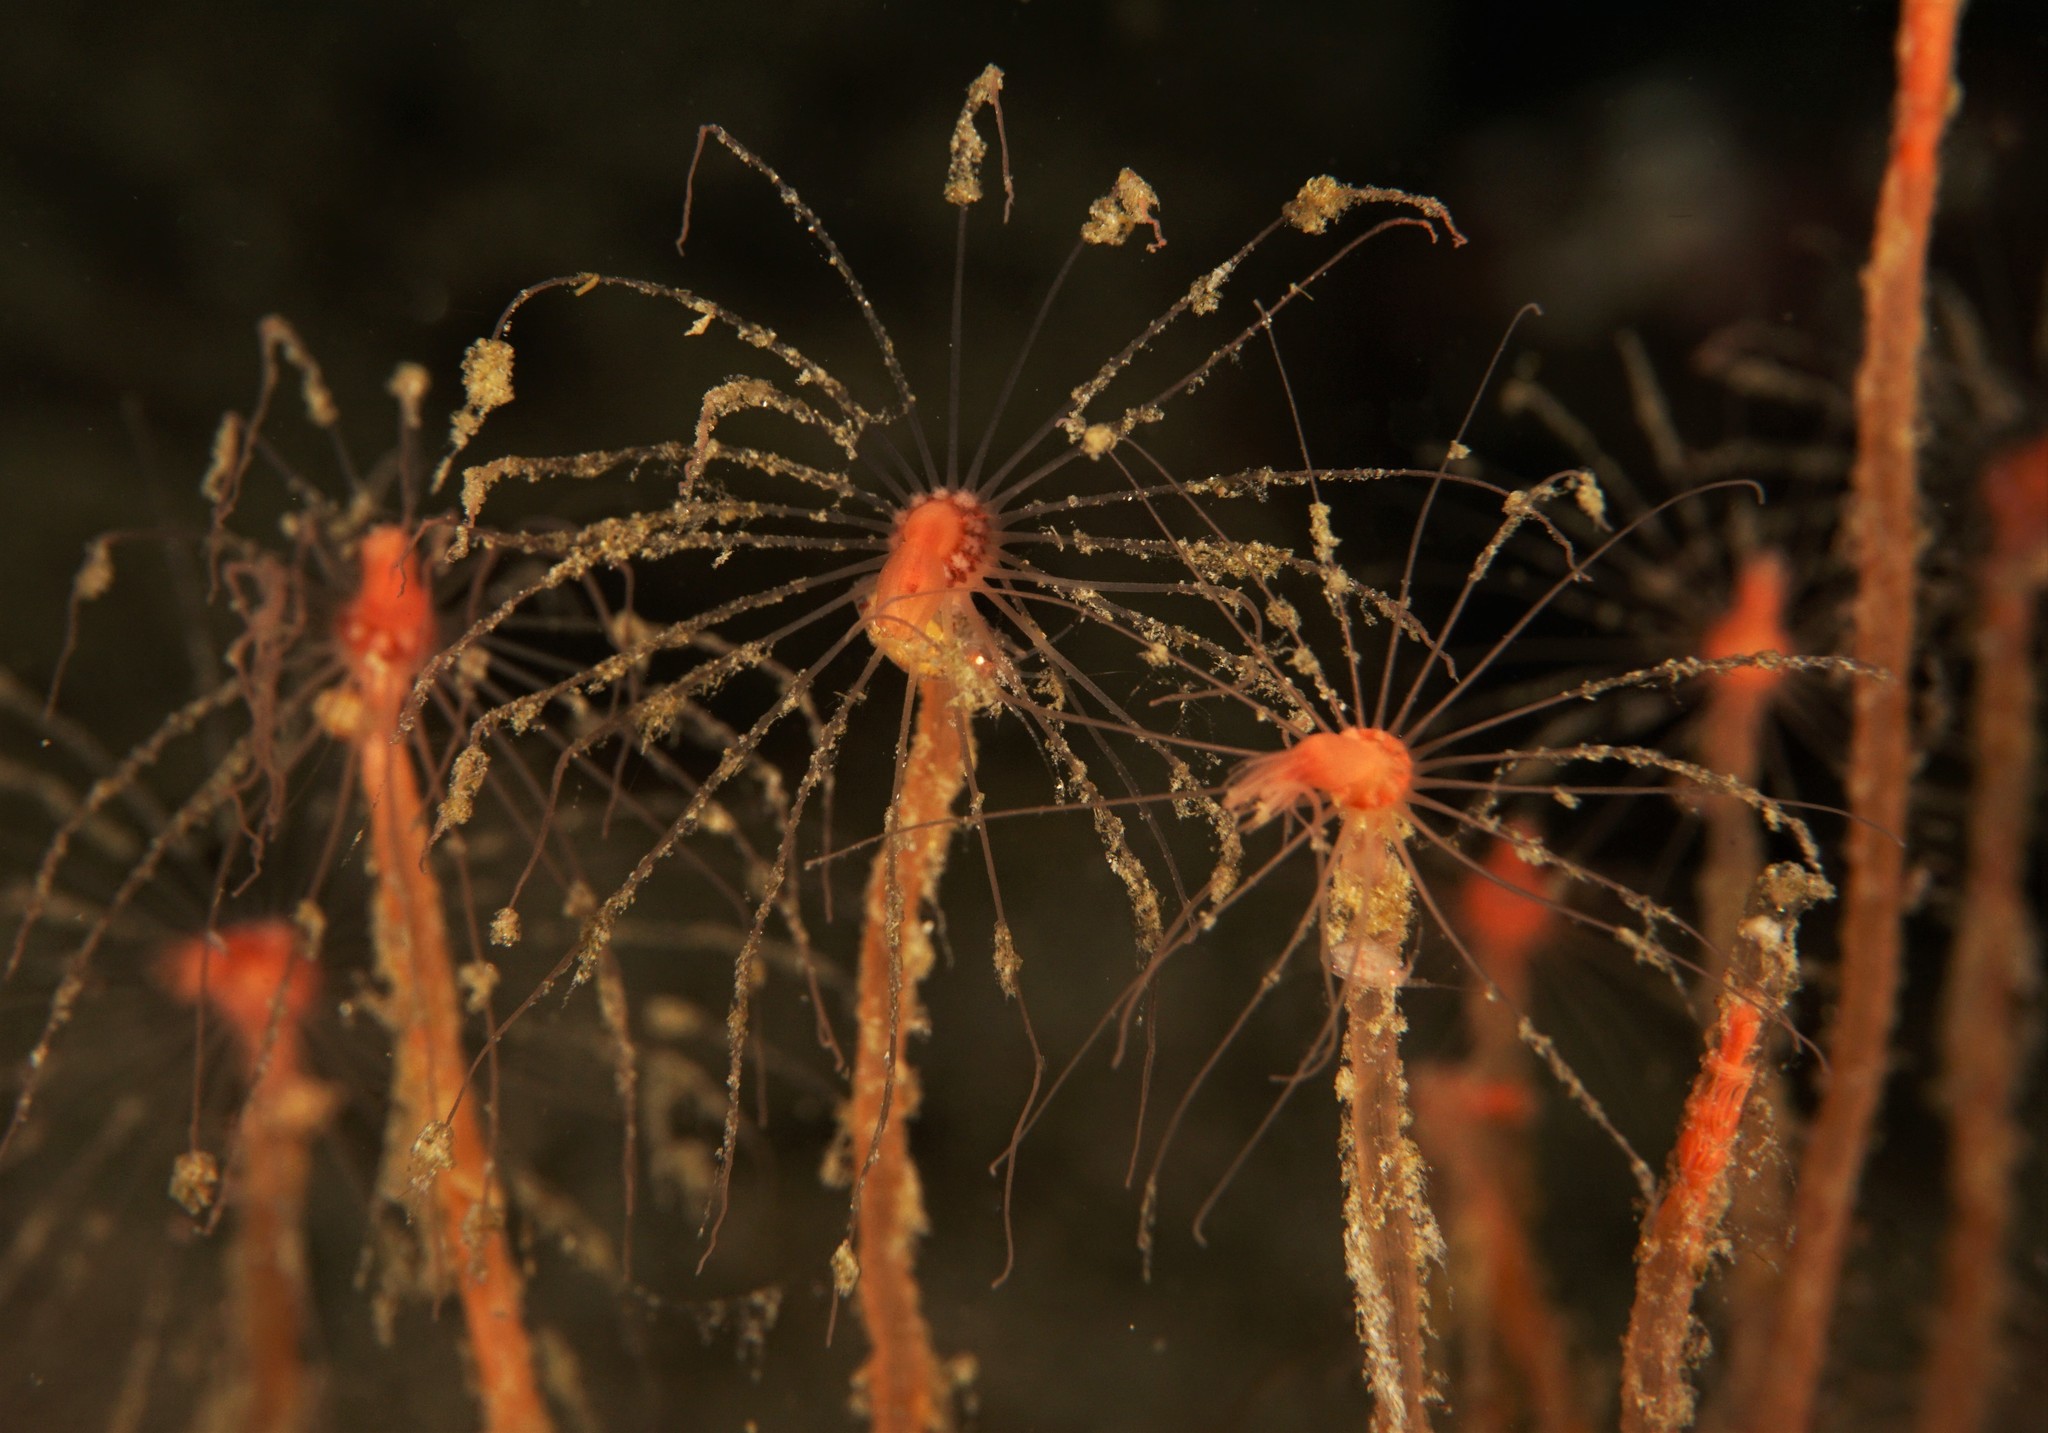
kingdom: Animalia
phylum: Cnidaria
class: Hydrozoa
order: Anthoathecata
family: Tubulariidae
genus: Tubularia
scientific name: Tubularia indivisa
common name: Oaten pipes hydroid
